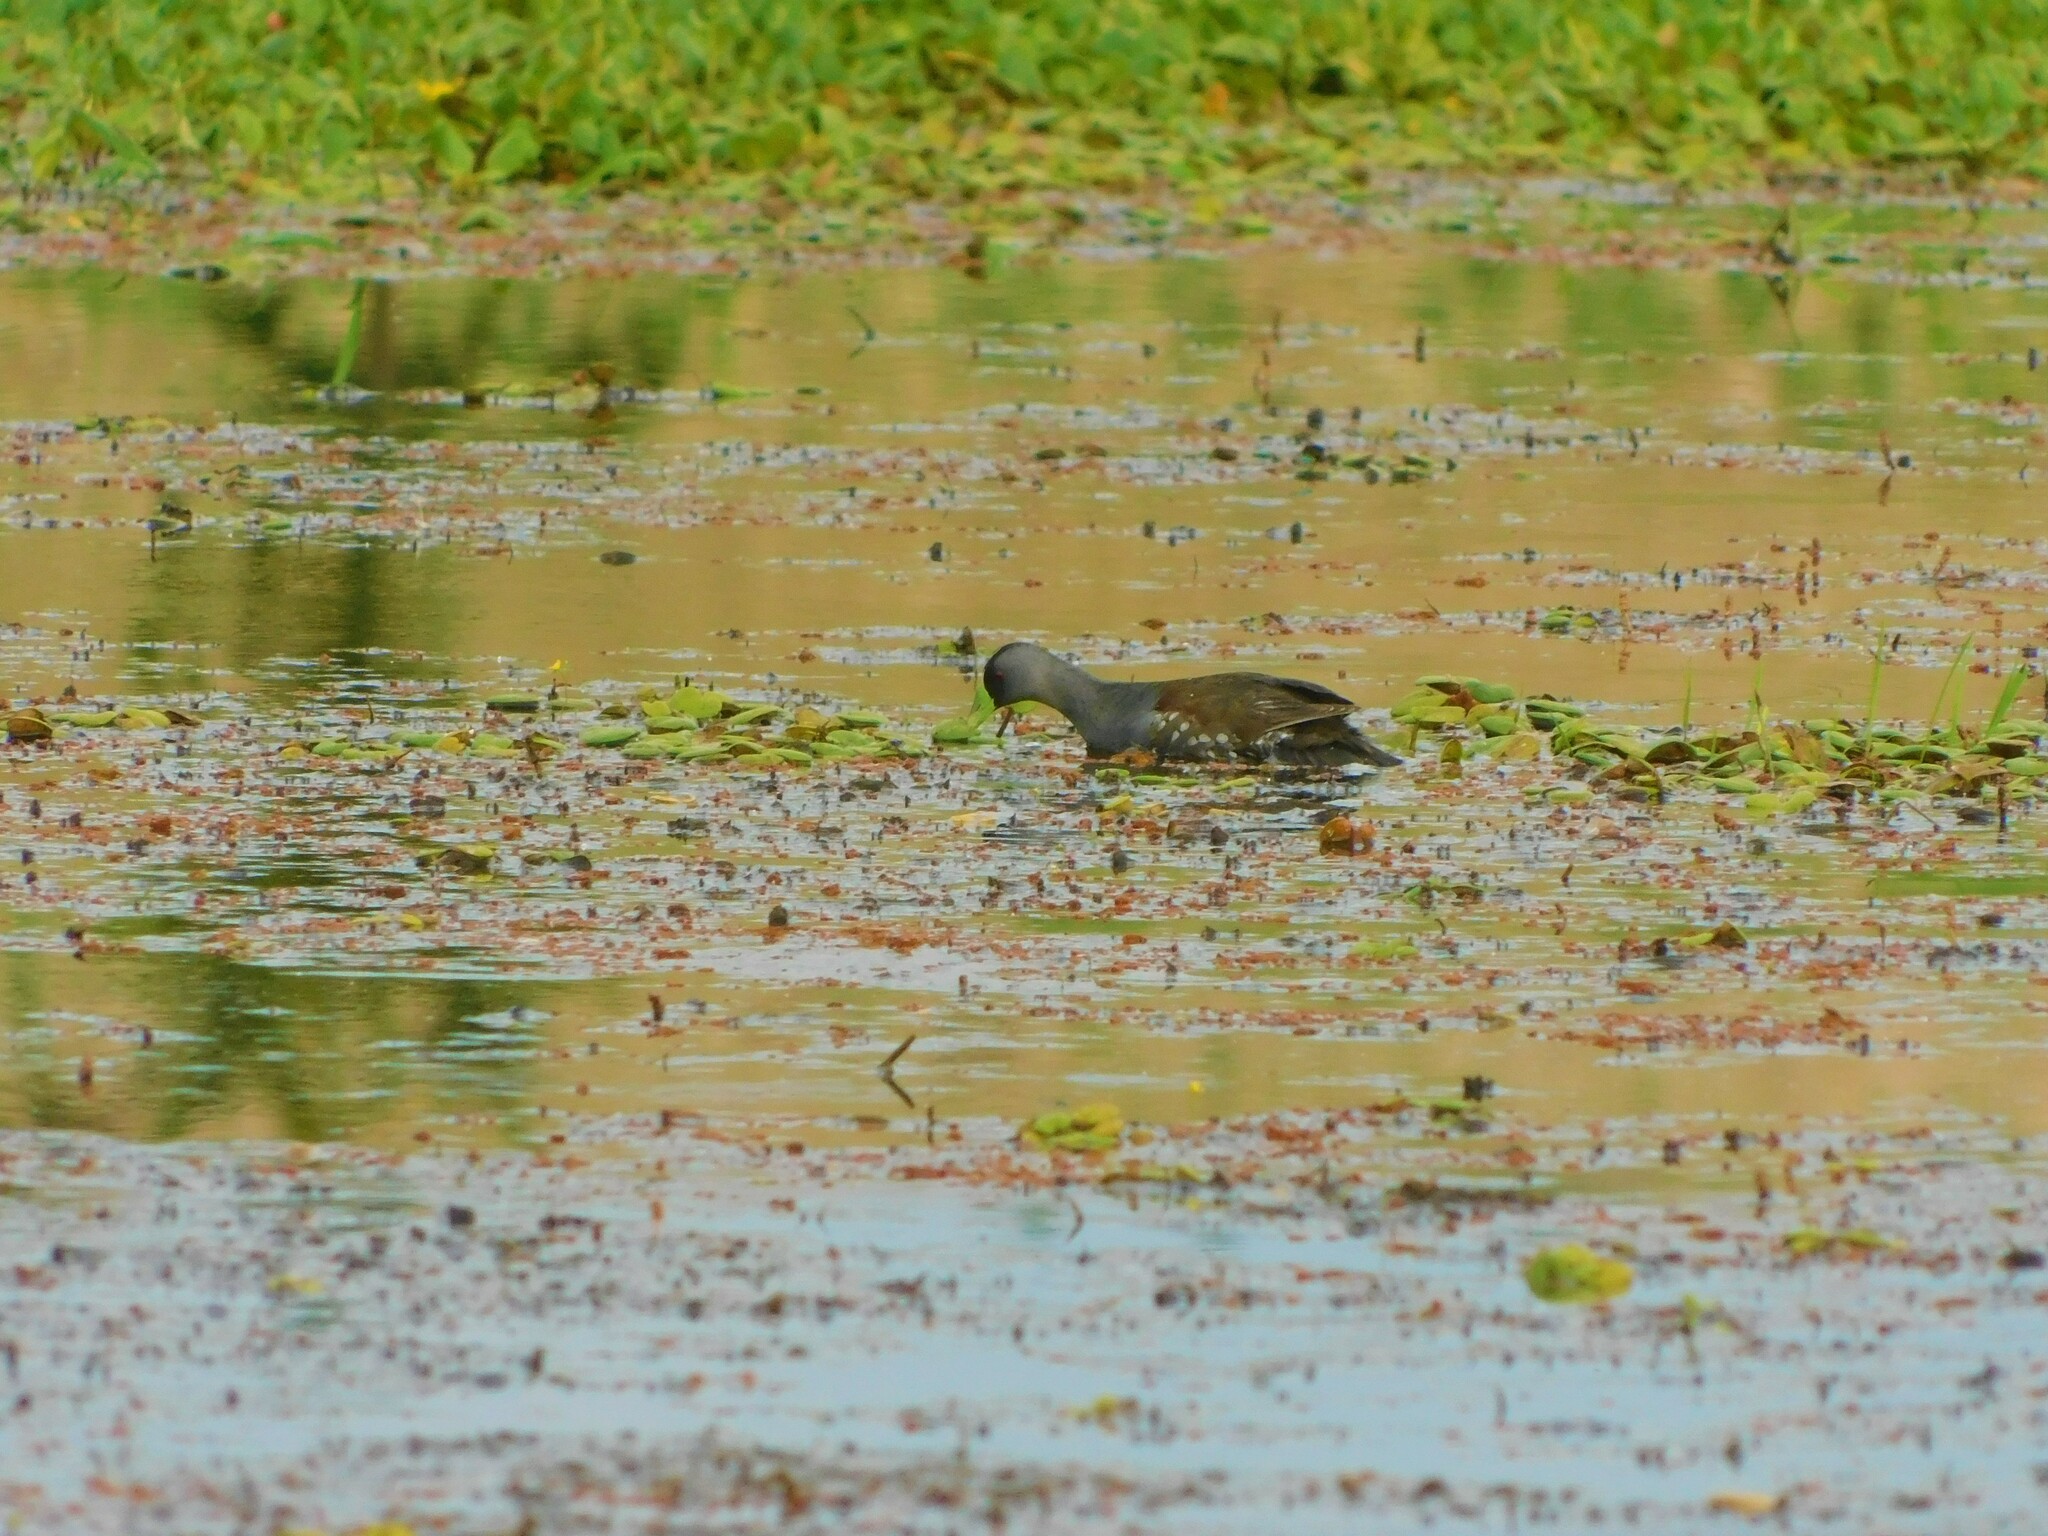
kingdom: Animalia
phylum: Chordata
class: Aves
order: Gruiformes
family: Rallidae
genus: Gallinula
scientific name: Gallinula melanops
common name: Spot-flanked gallinule
